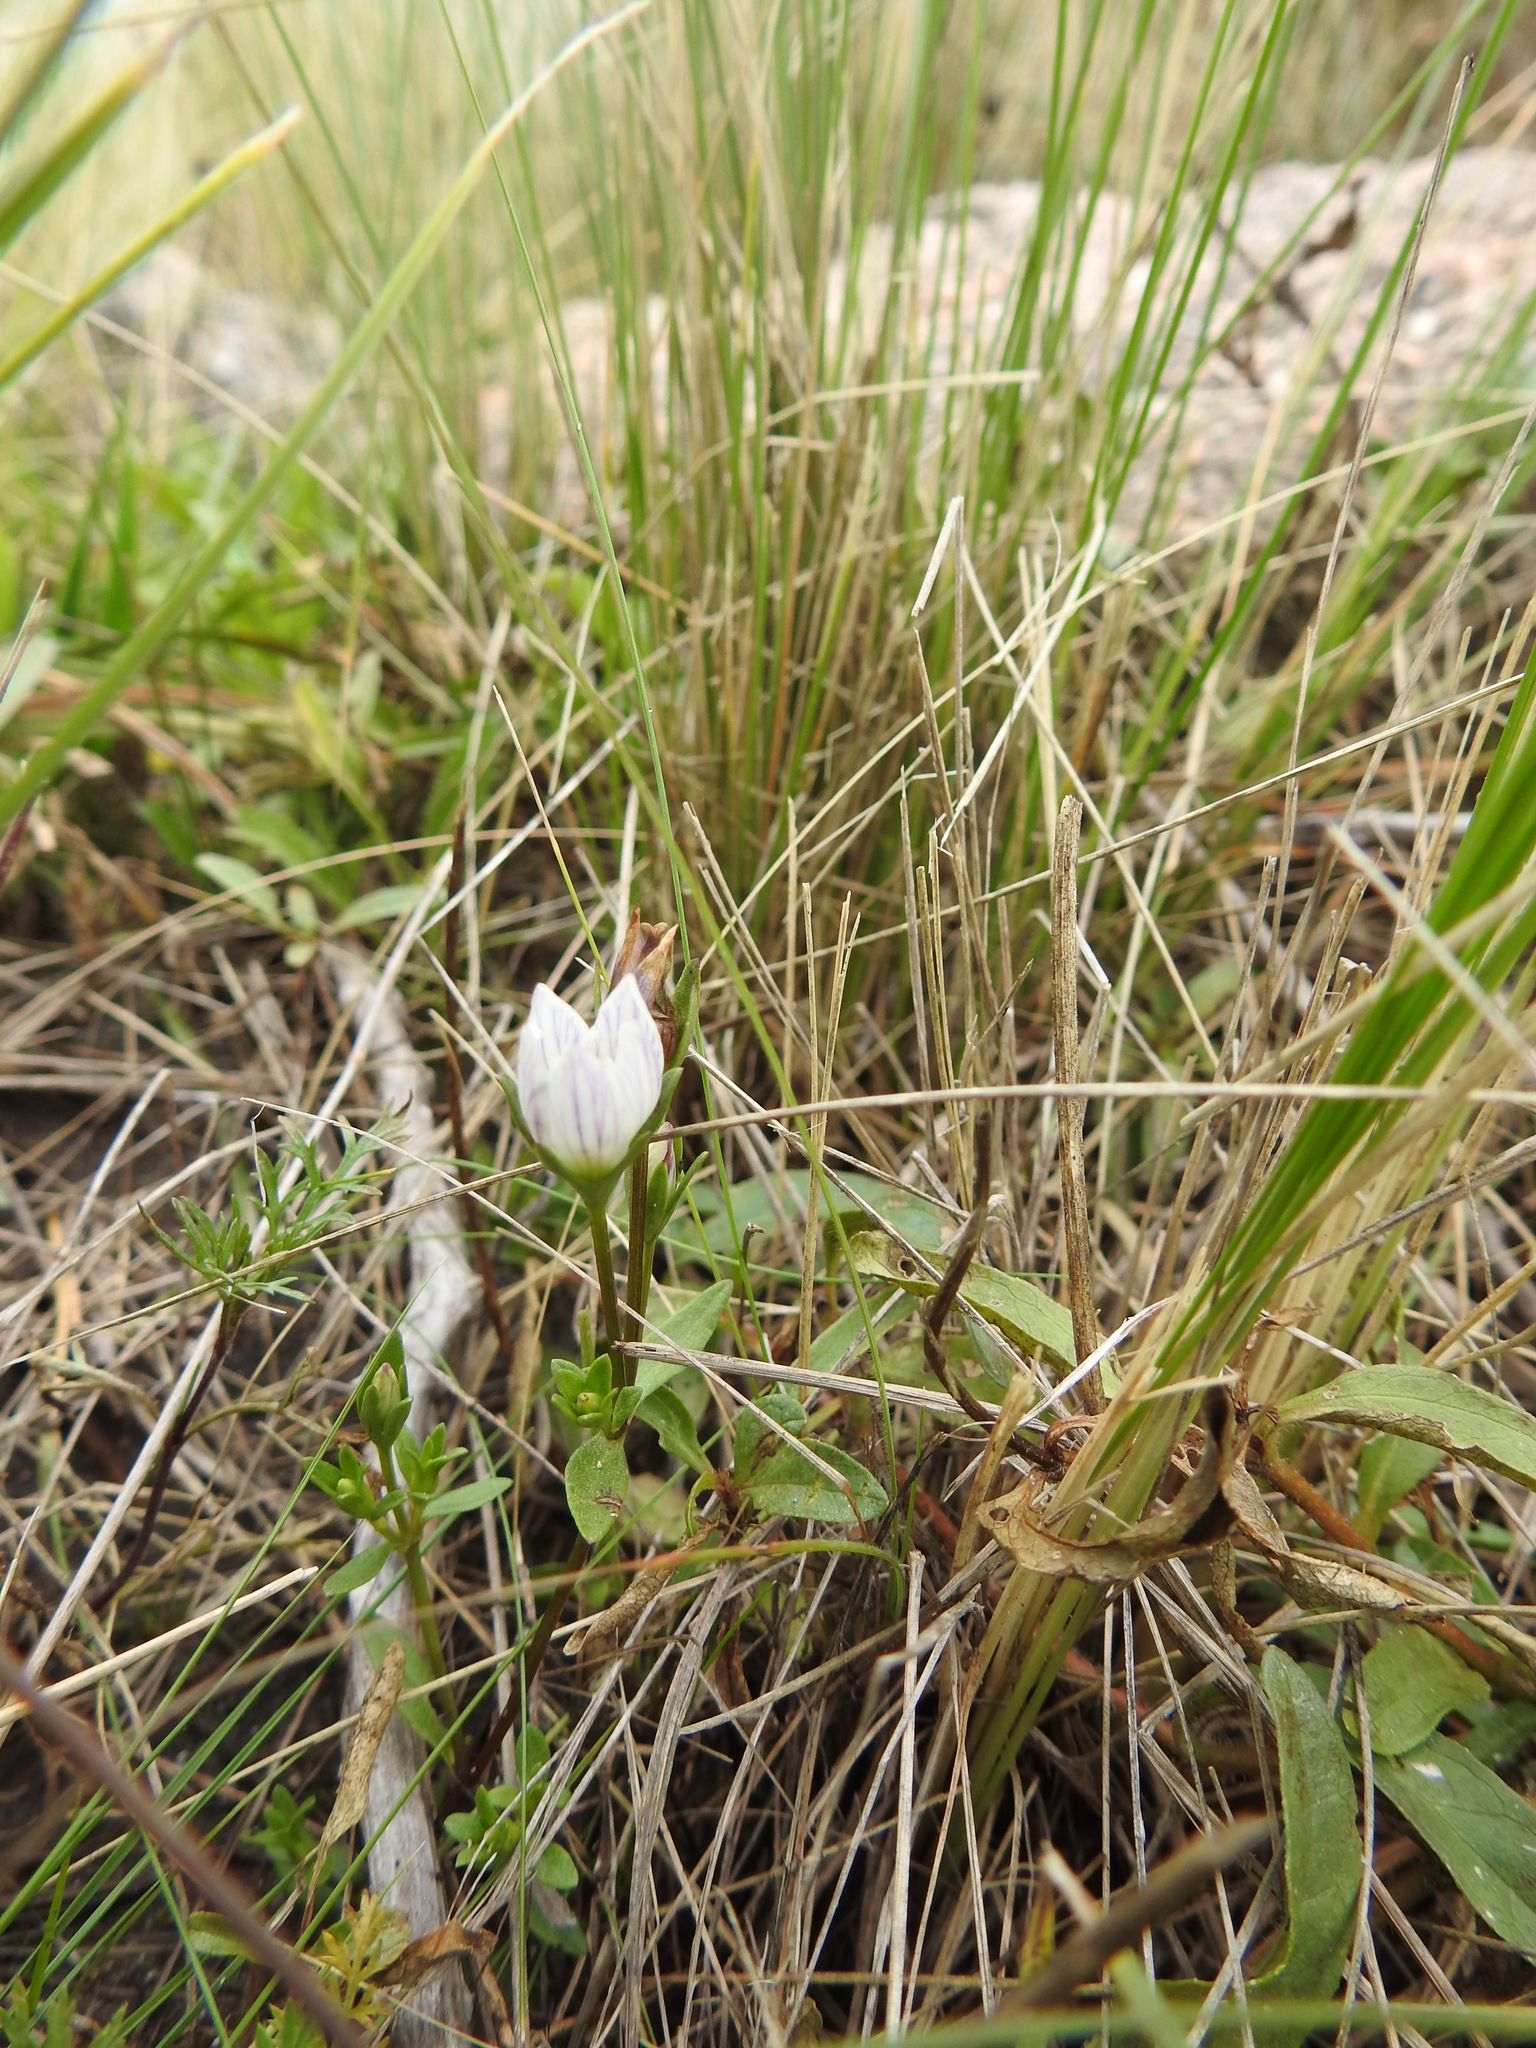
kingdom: Plantae
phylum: Tracheophyta
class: Magnoliopsida
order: Gentianales
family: Gentianaceae
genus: Gentianella
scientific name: Gentianella multicaulis
